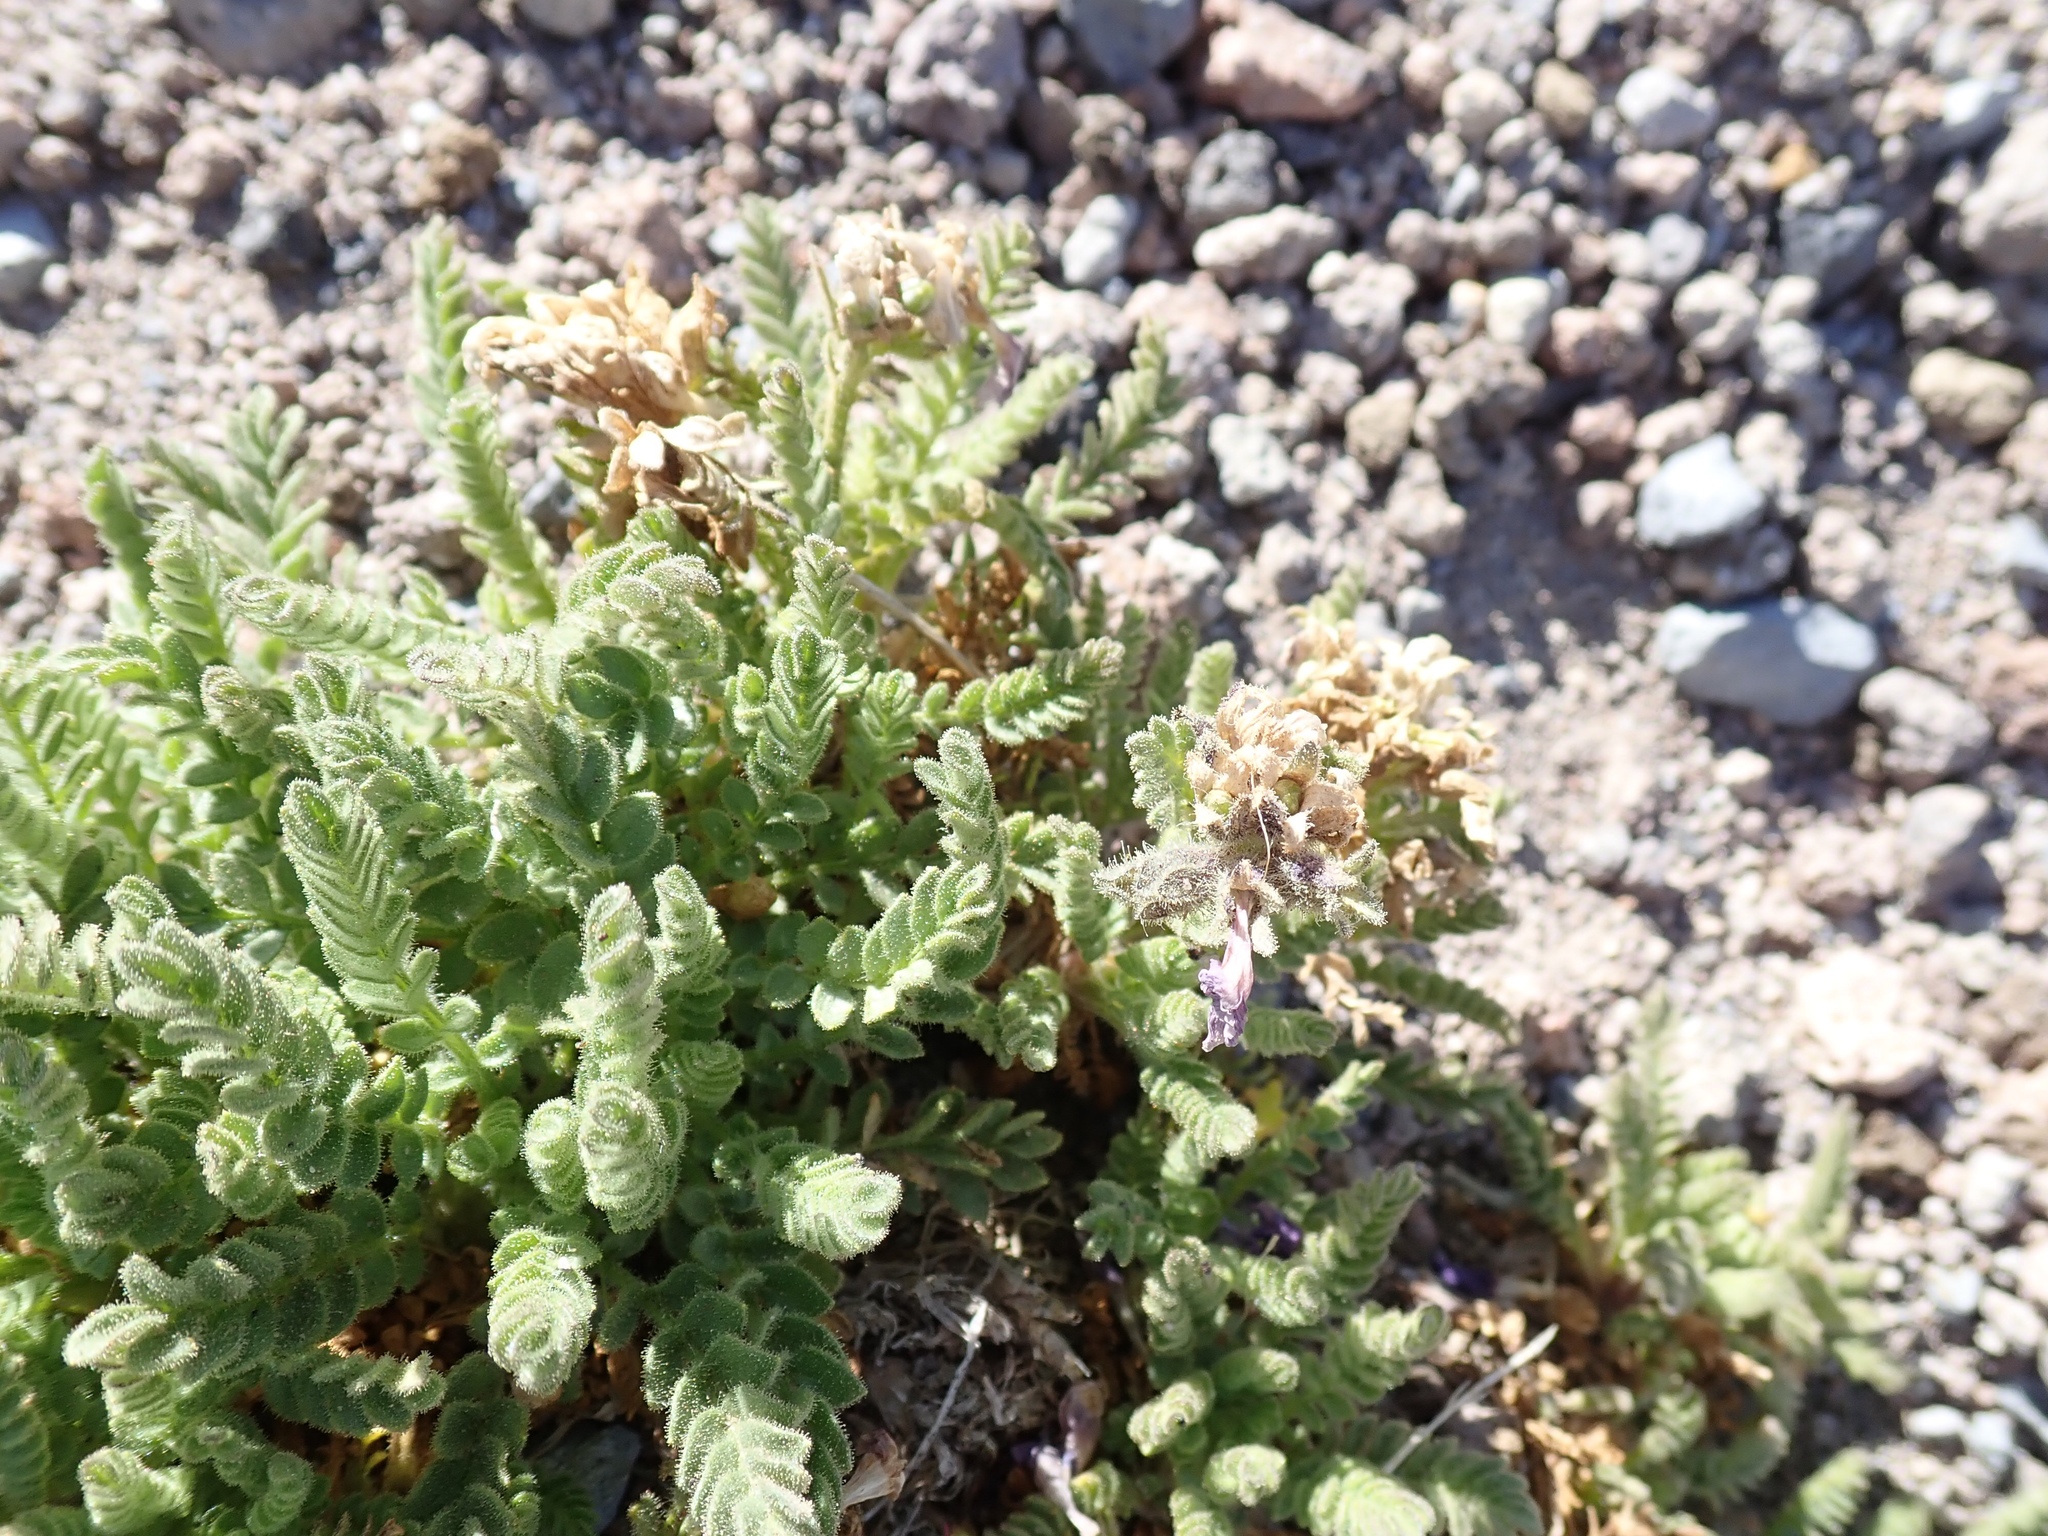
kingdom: Plantae
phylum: Tracheophyta
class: Magnoliopsida
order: Ericales
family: Polemoniaceae
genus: Polemonium
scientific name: Polemonium elegans
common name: Elegant jacob's-ladder
